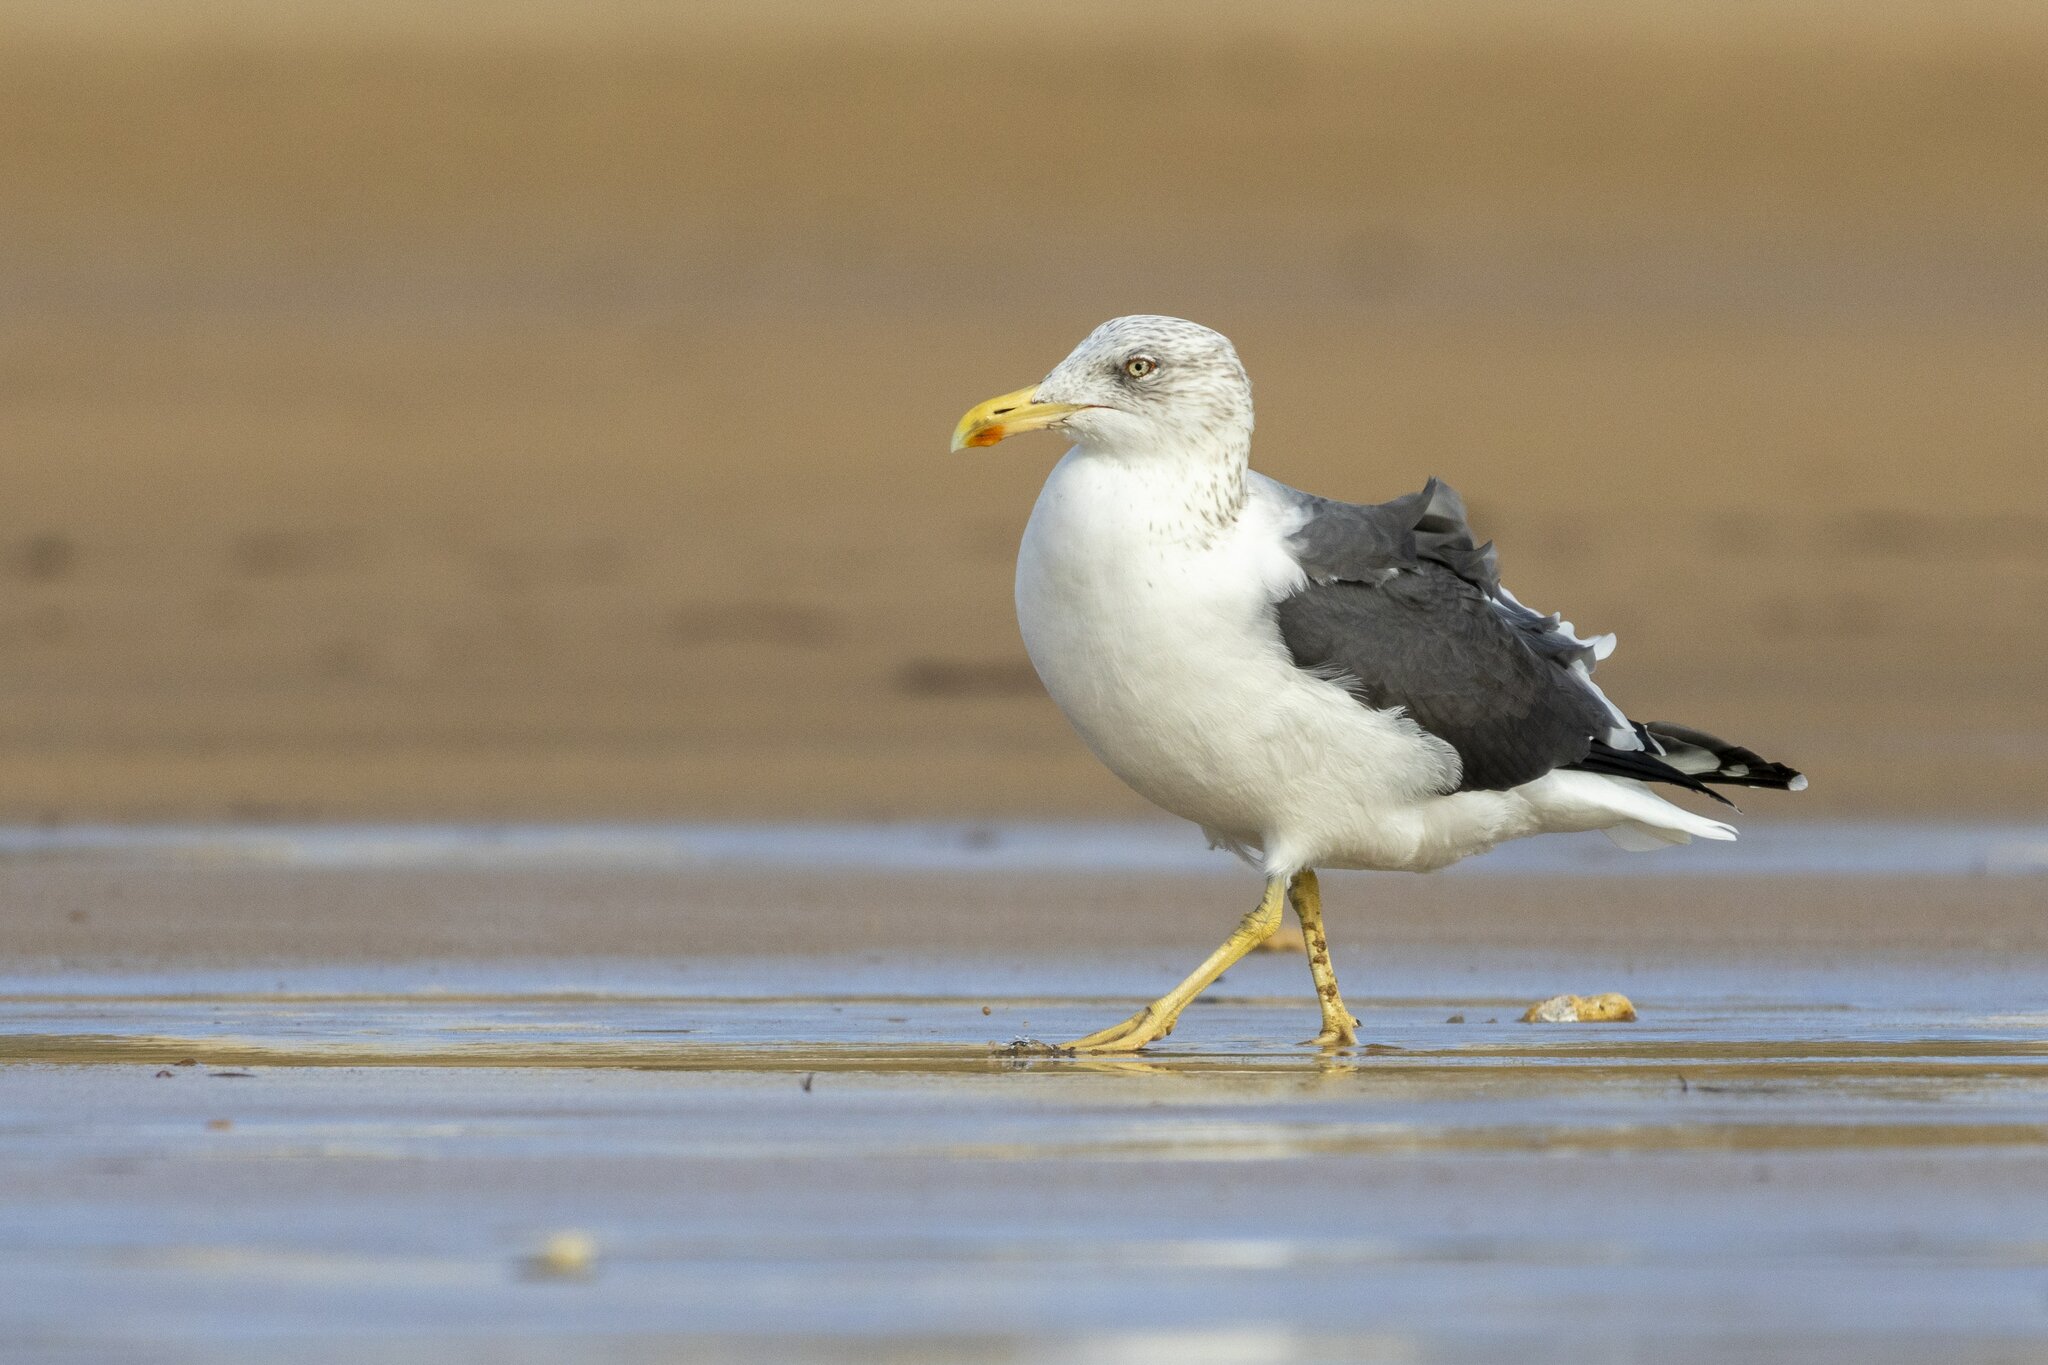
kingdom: Animalia
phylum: Chordata
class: Aves
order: Charadriiformes
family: Laridae
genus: Larus
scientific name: Larus fuscus
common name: Lesser black-backed gull
